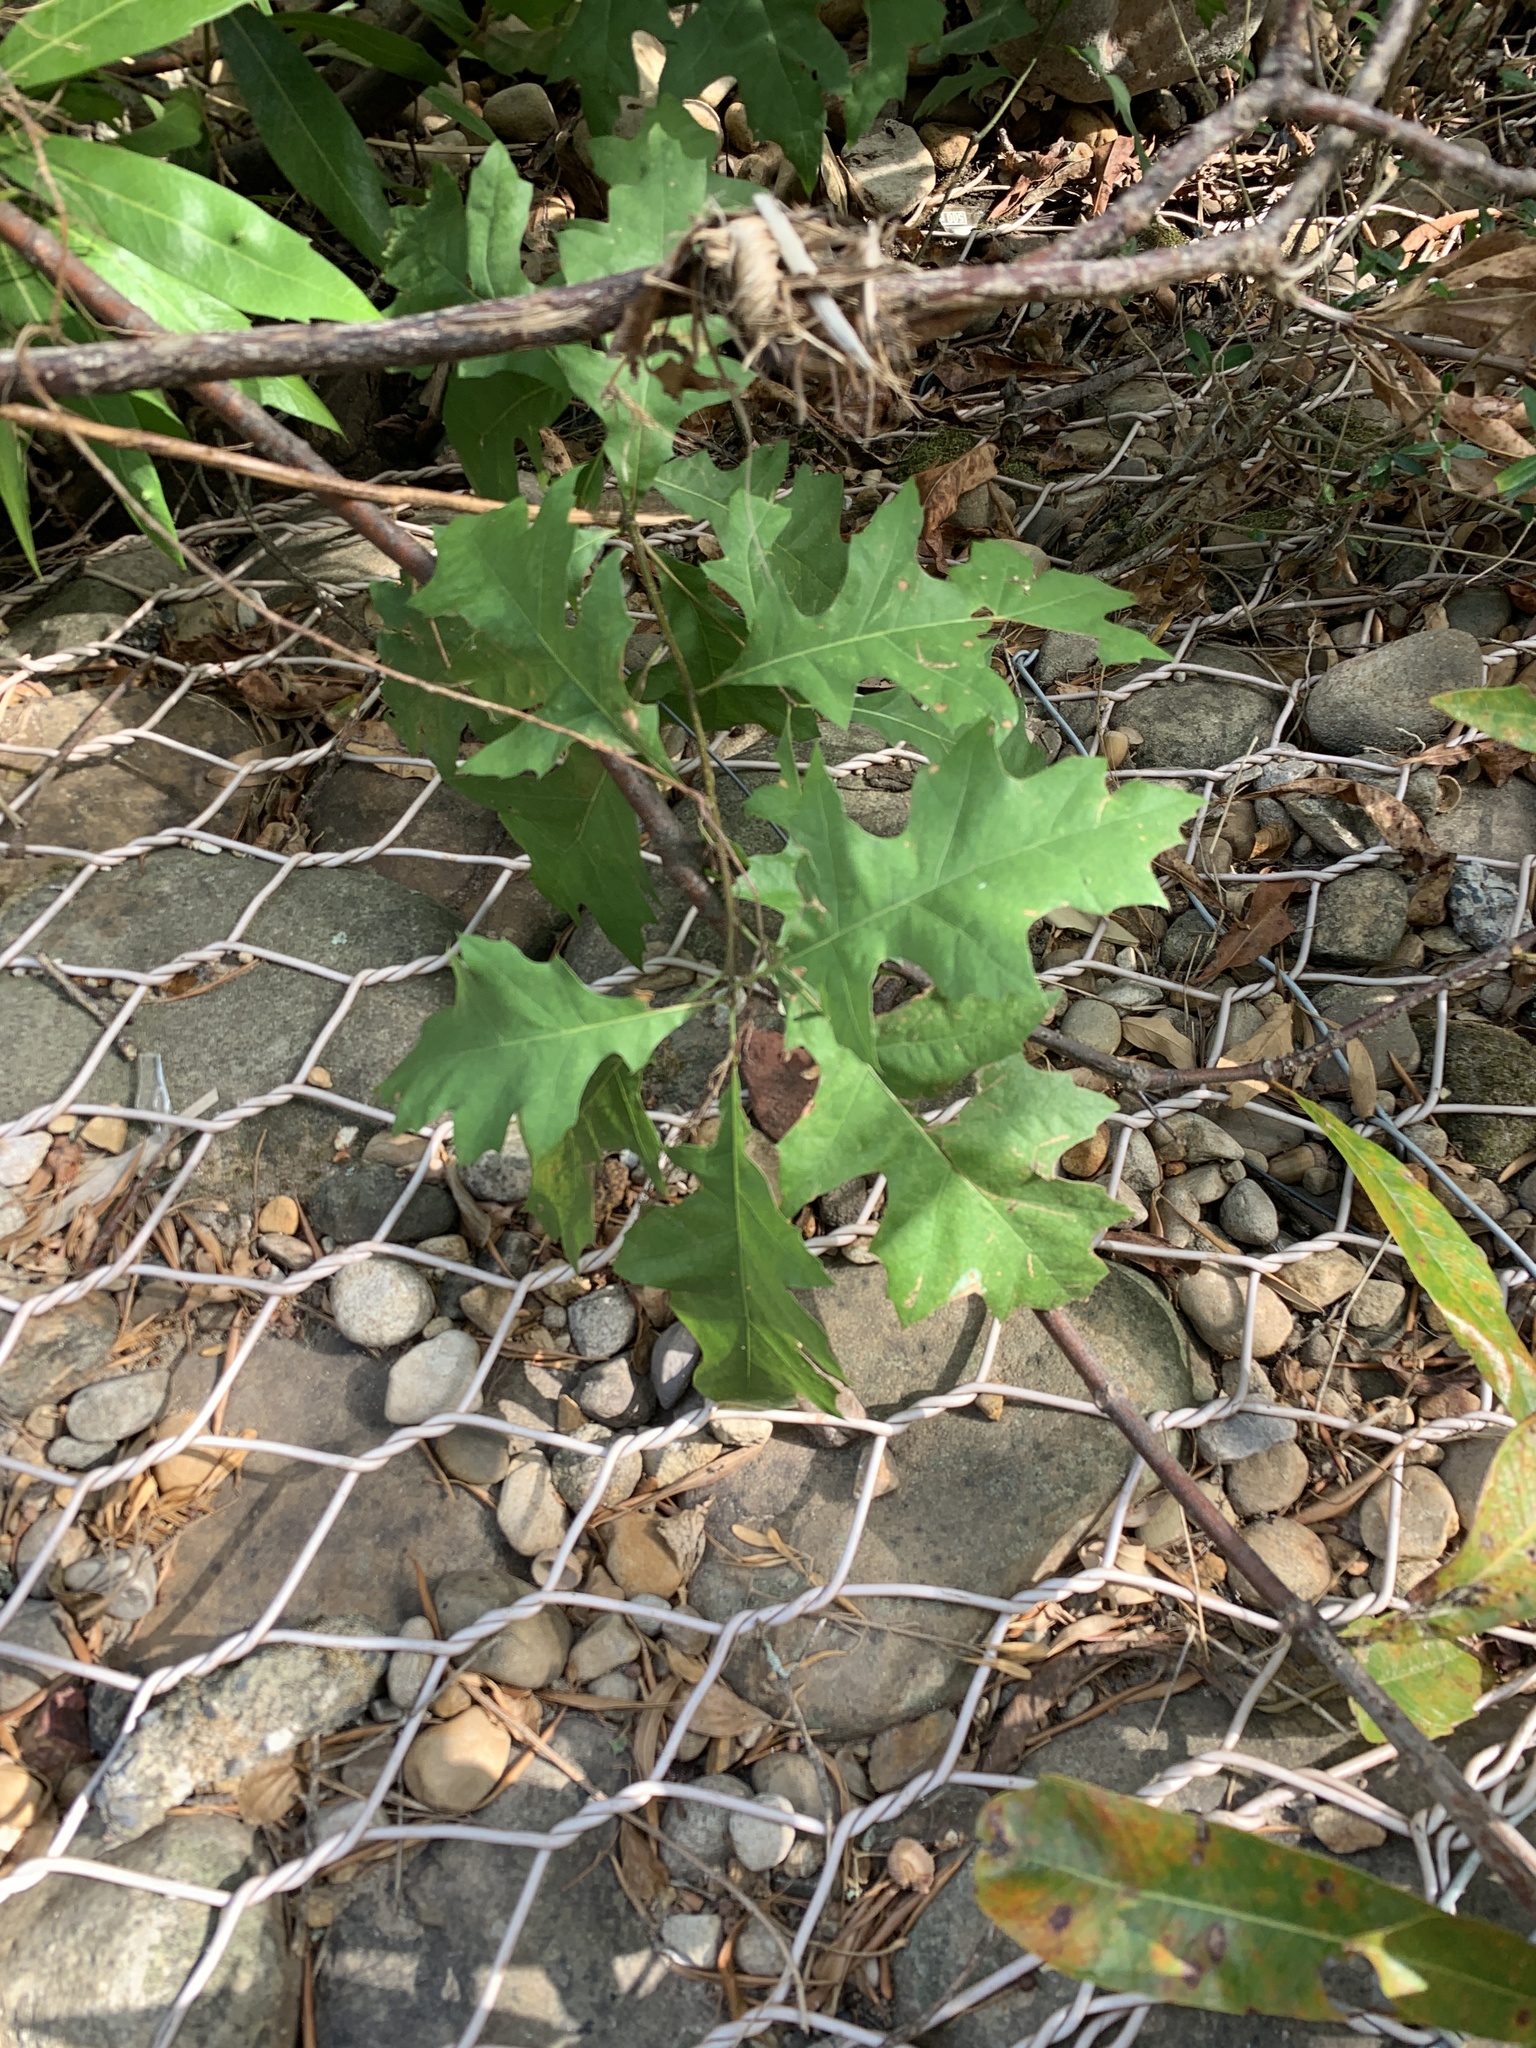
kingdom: Plantae
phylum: Tracheophyta
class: Magnoliopsida
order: Fagales
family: Fagaceae
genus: Quercus
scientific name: Quercus palustris
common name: Pin oak
